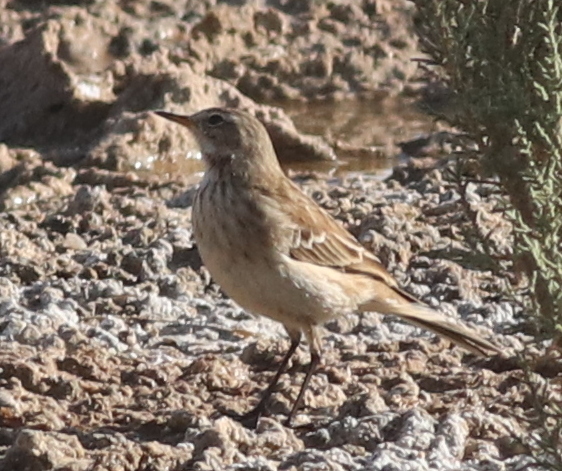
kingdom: Animalia
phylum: Chordata
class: Aves
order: Passeriformes
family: Motacillidae
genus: Anthus
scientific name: Anthus spinoletta
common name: Water pipit
